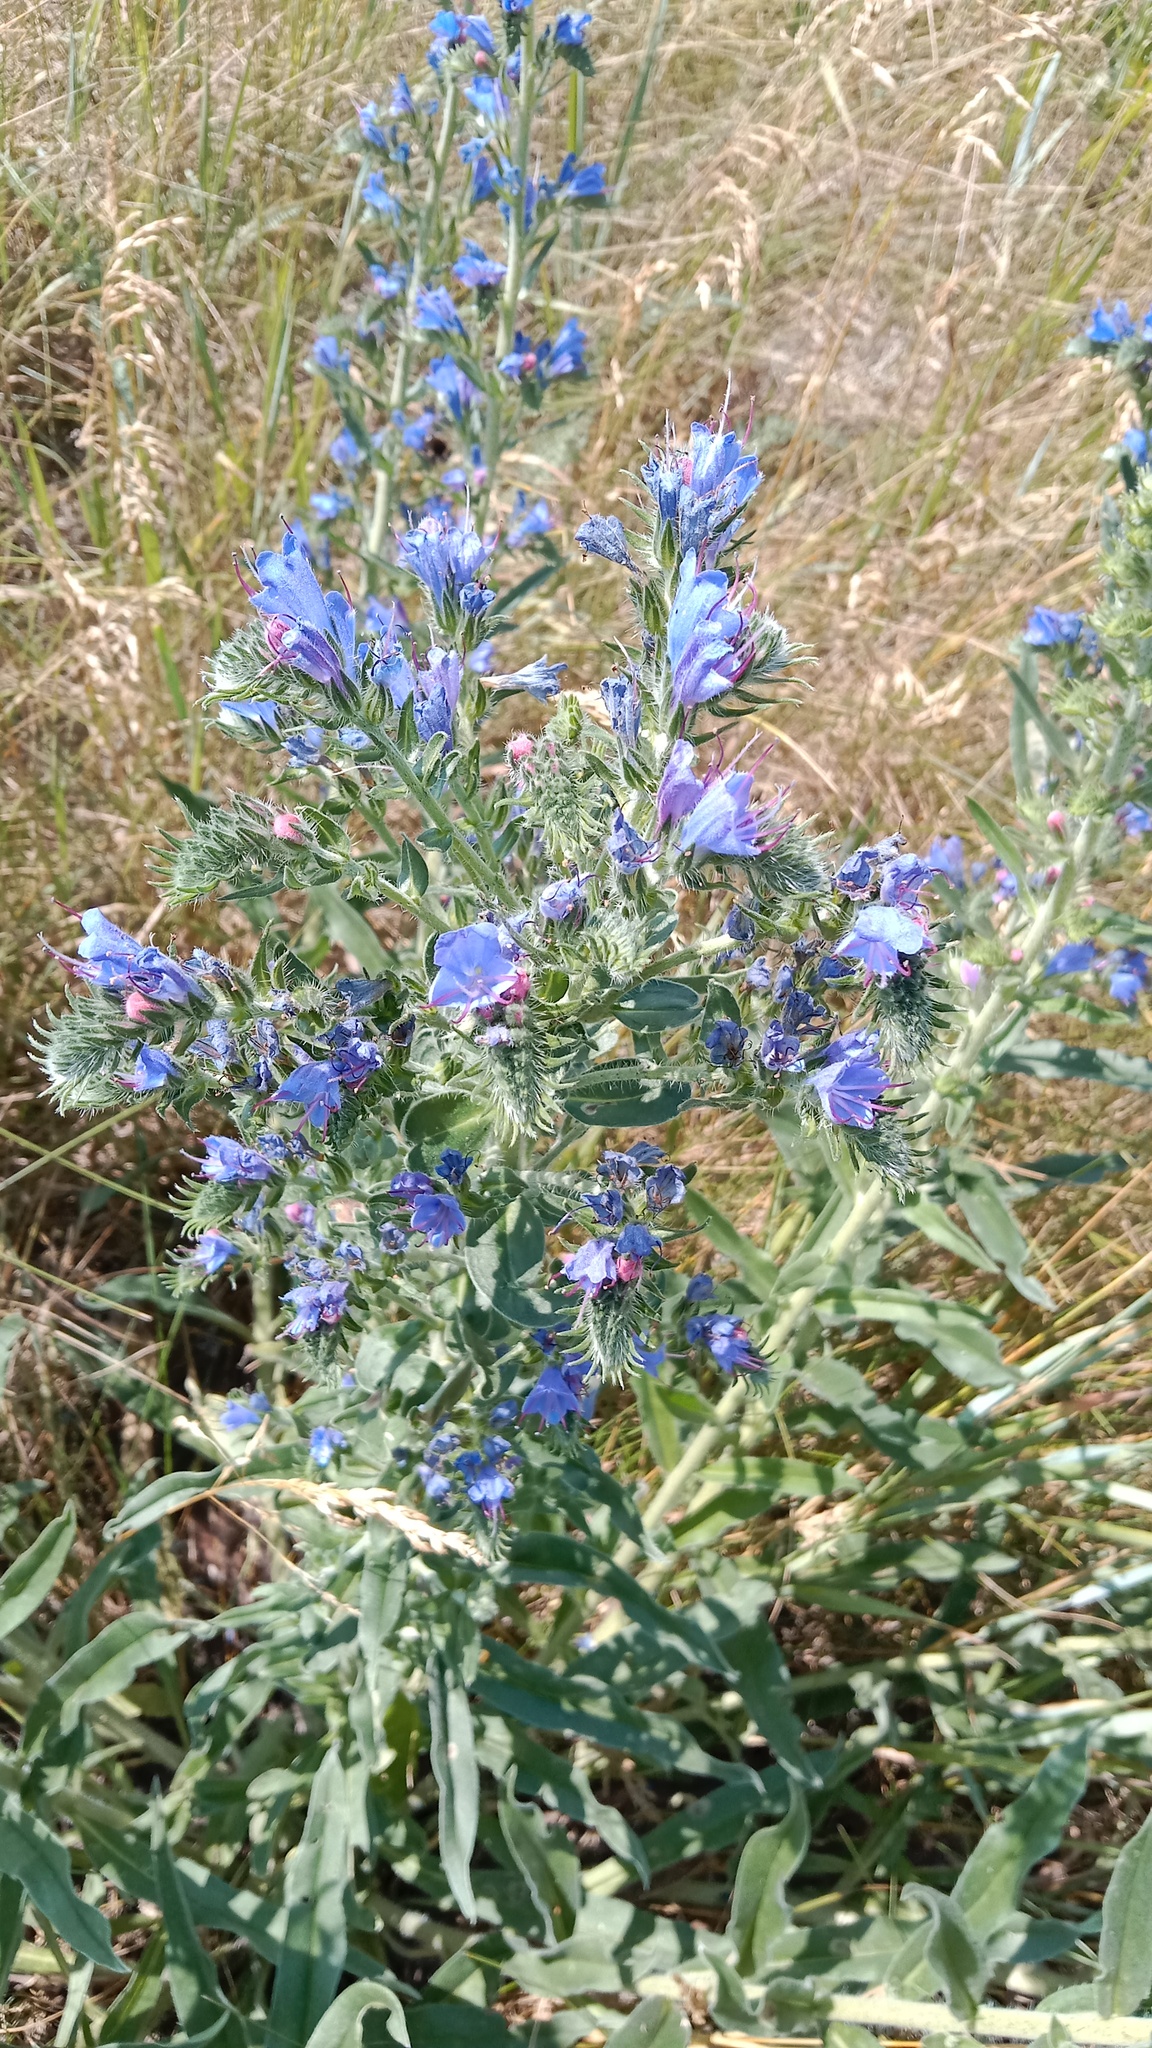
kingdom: Plantae
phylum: Tracheophyta
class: Magnoliopsida
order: Boraginales
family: Boraginaceae
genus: Echium
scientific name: Echium vulgare
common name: Common viper's bugloss
